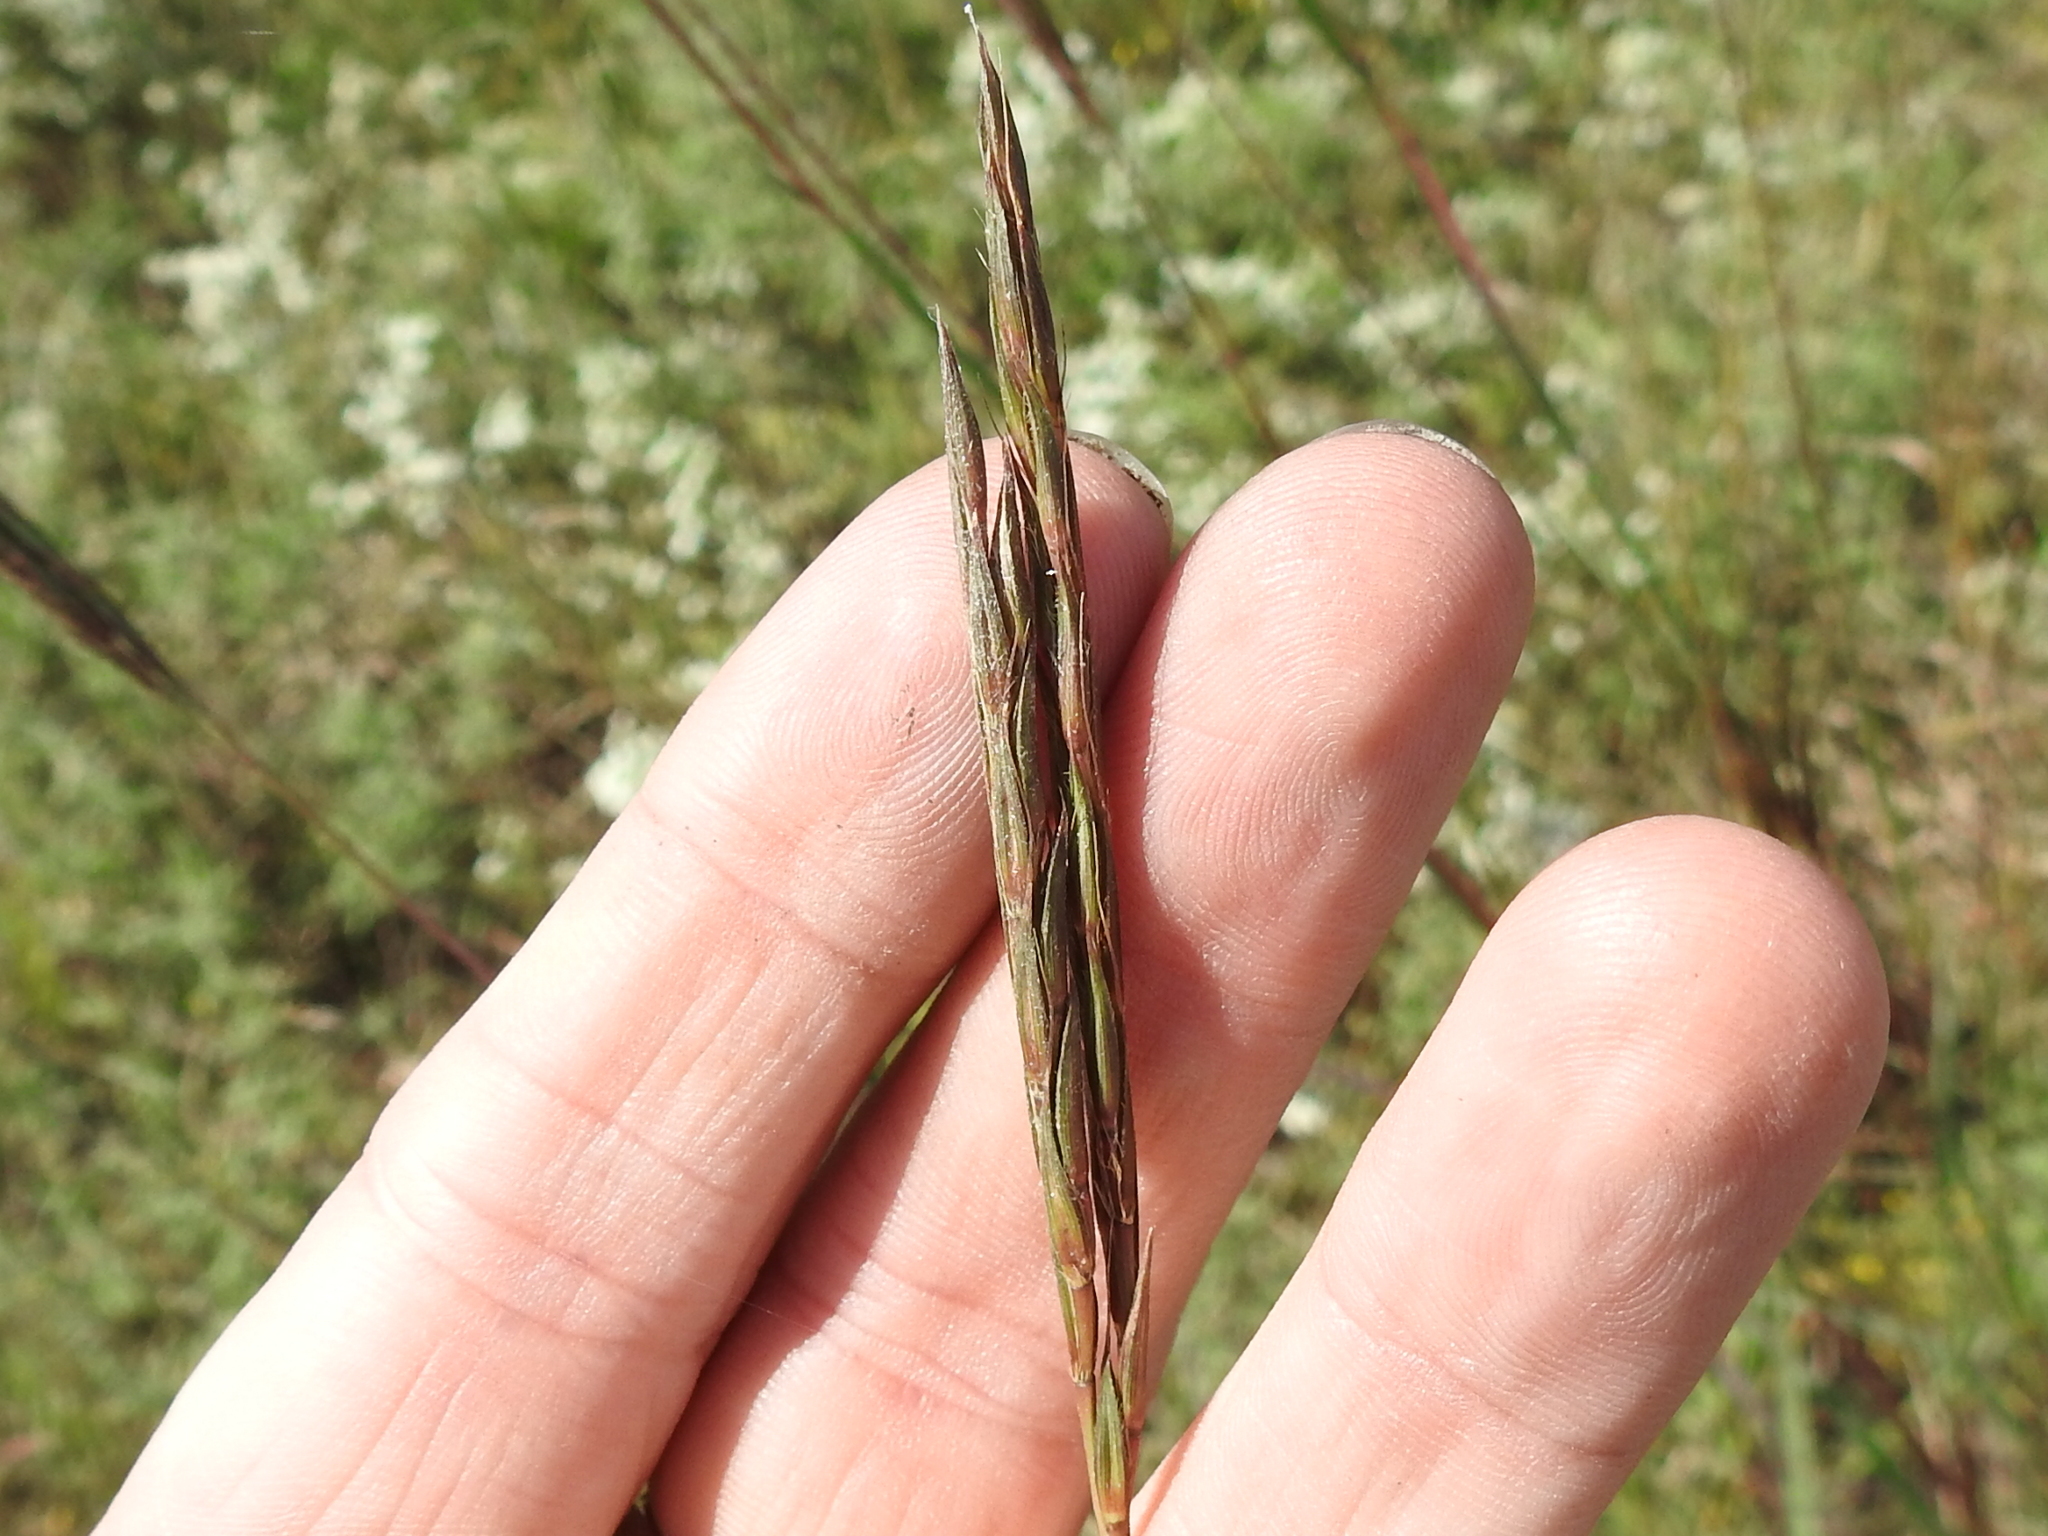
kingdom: Plantae
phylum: Tracheophyta
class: Liliopsida
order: Poales
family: Poaceae
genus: Andropogon
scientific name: Andropogon gerardi
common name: Big bluestem
